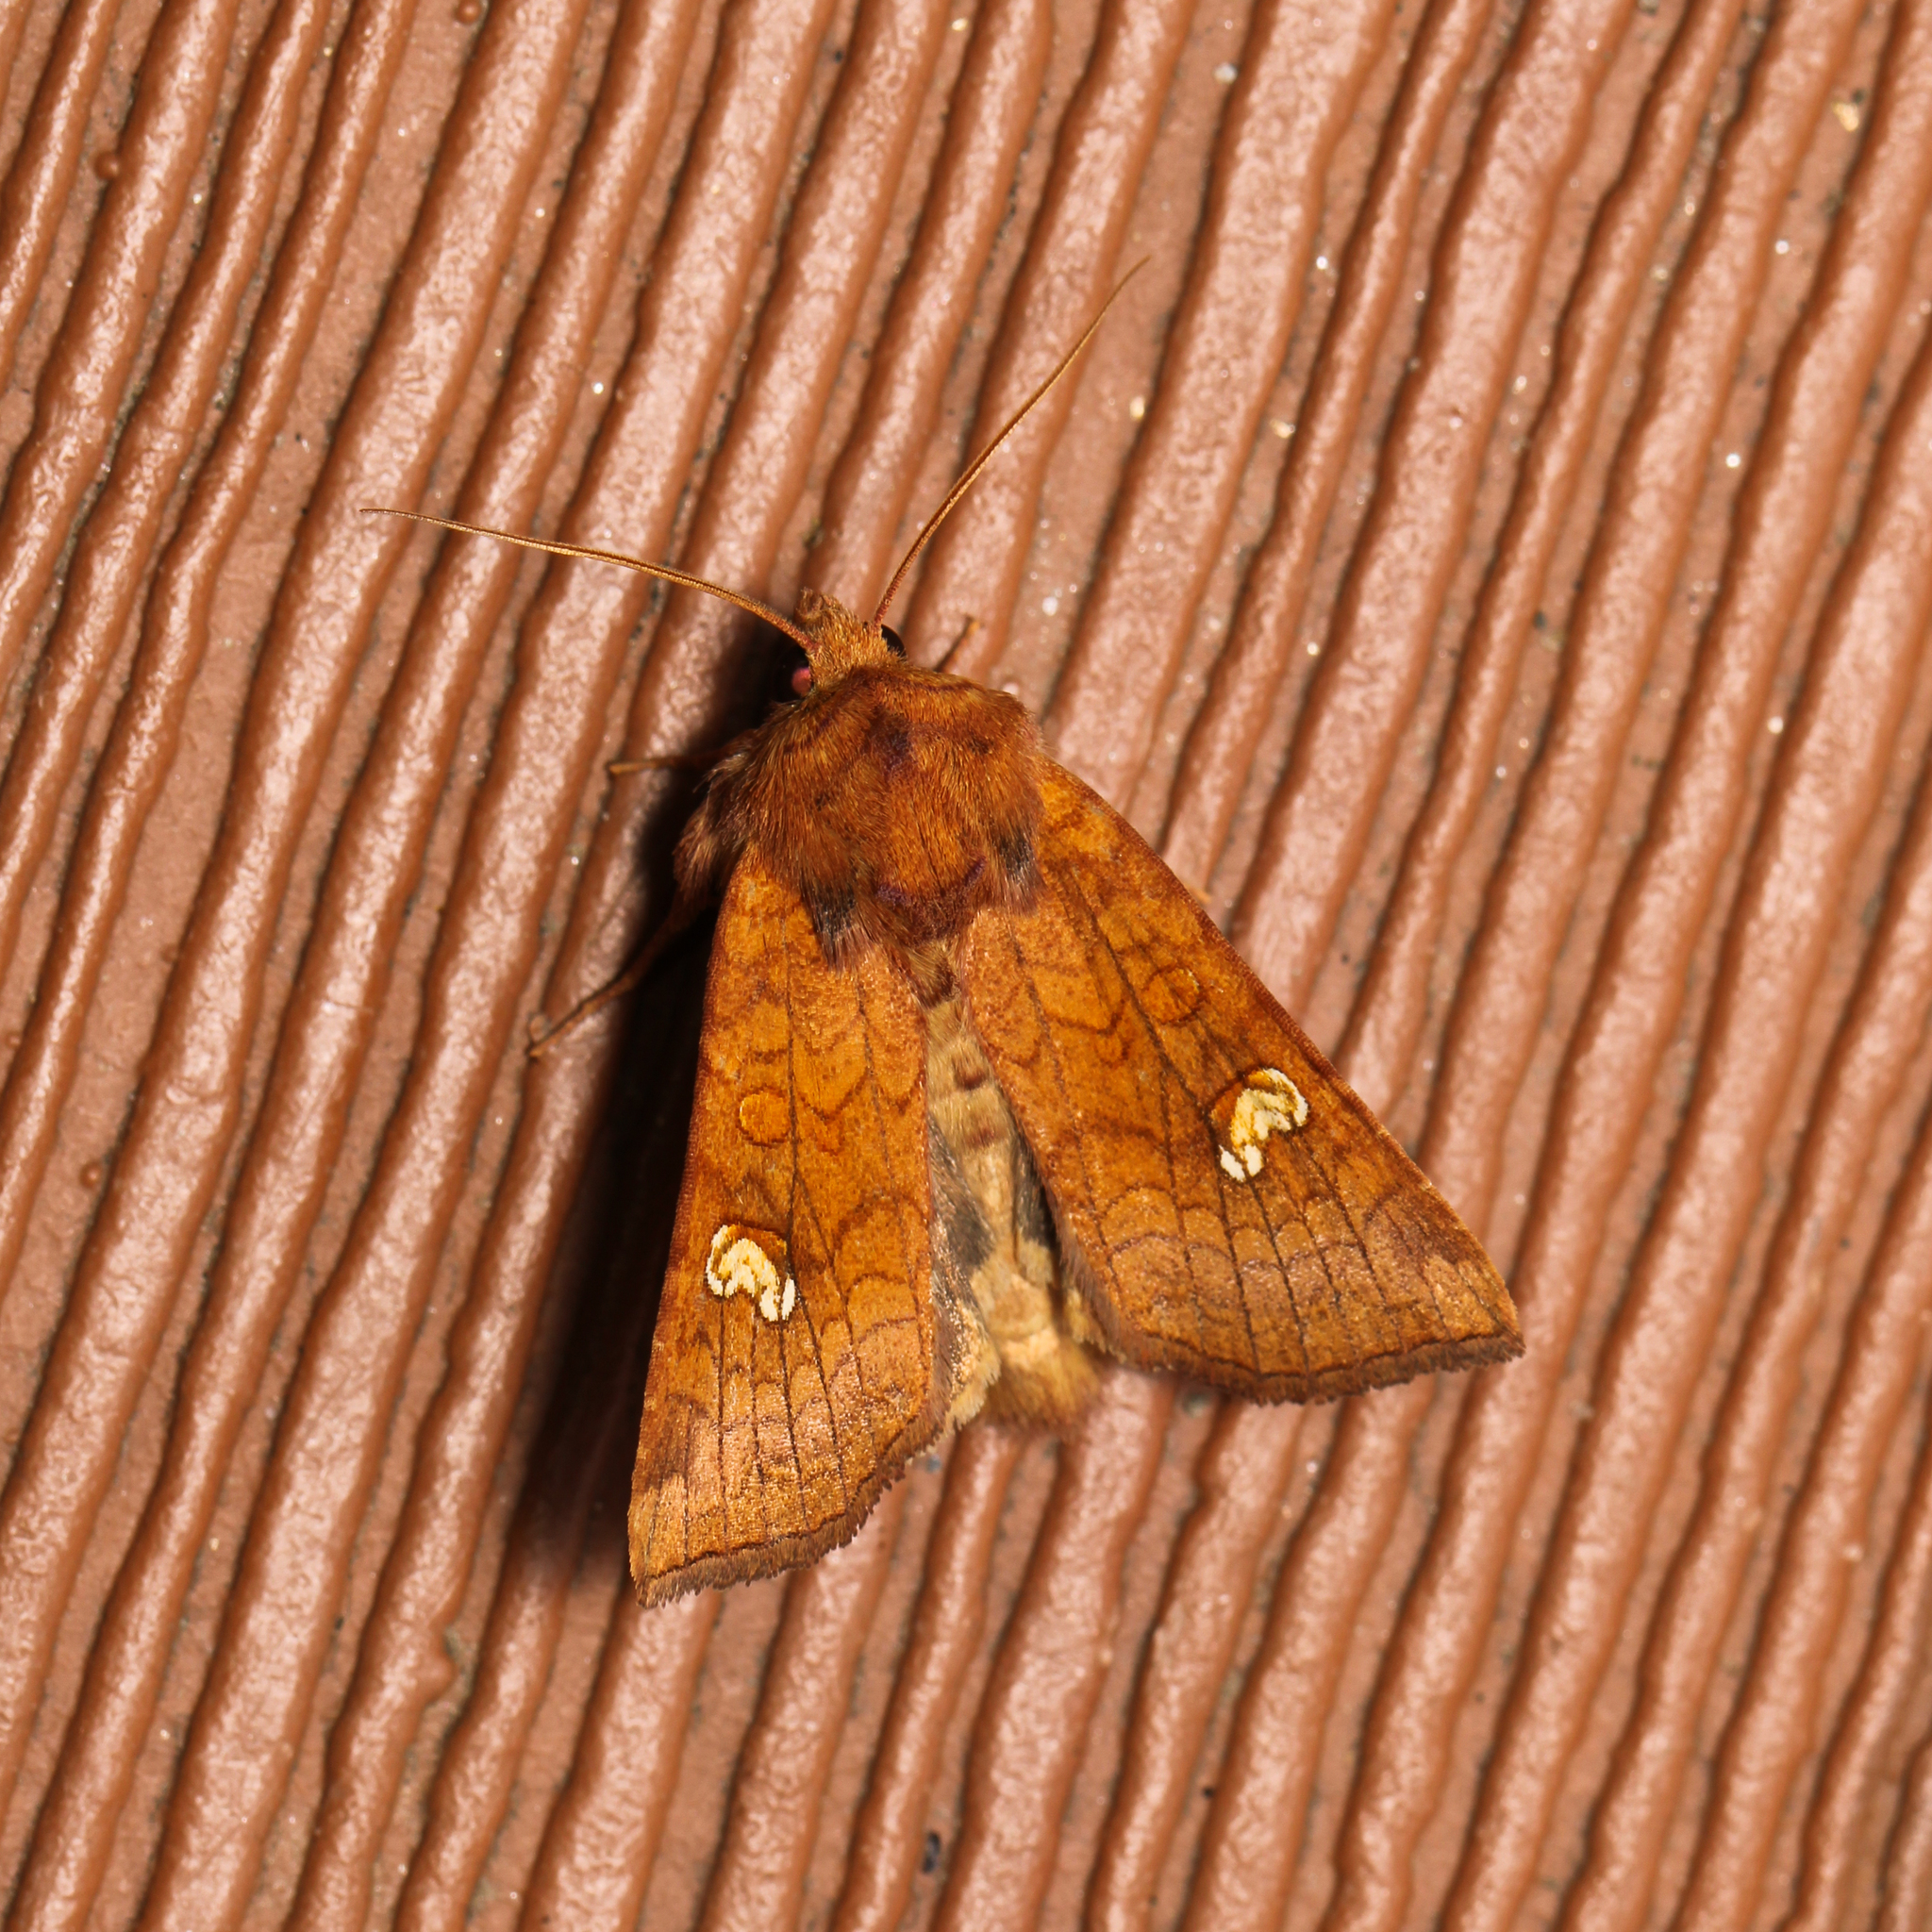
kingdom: Animalia
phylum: Arthropoda
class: Insecta
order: Lepidoptera
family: Noctuidae
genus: Amphipoea
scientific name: Amphipoea
